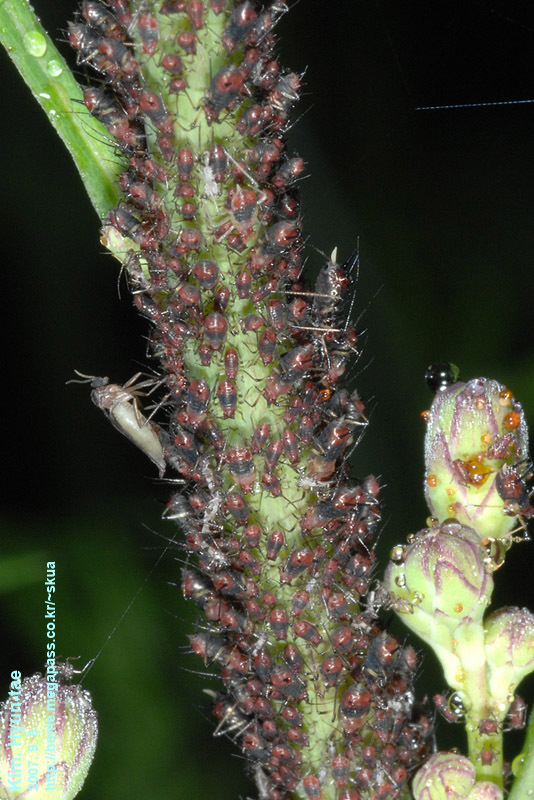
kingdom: Animalia
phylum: Arthropoda
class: Insecta
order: Hemiptera
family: Aphididae
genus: Uroleucon
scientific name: Uroleucon formosanum
